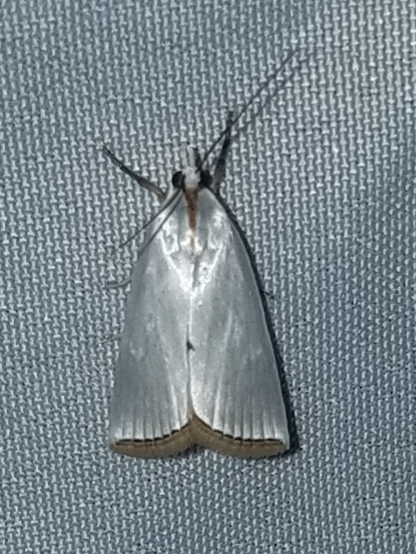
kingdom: Animalia
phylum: Arthropoda
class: Insecta
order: Lepidoptera
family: Crambidae
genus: Argyria
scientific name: Argyria nivalis
